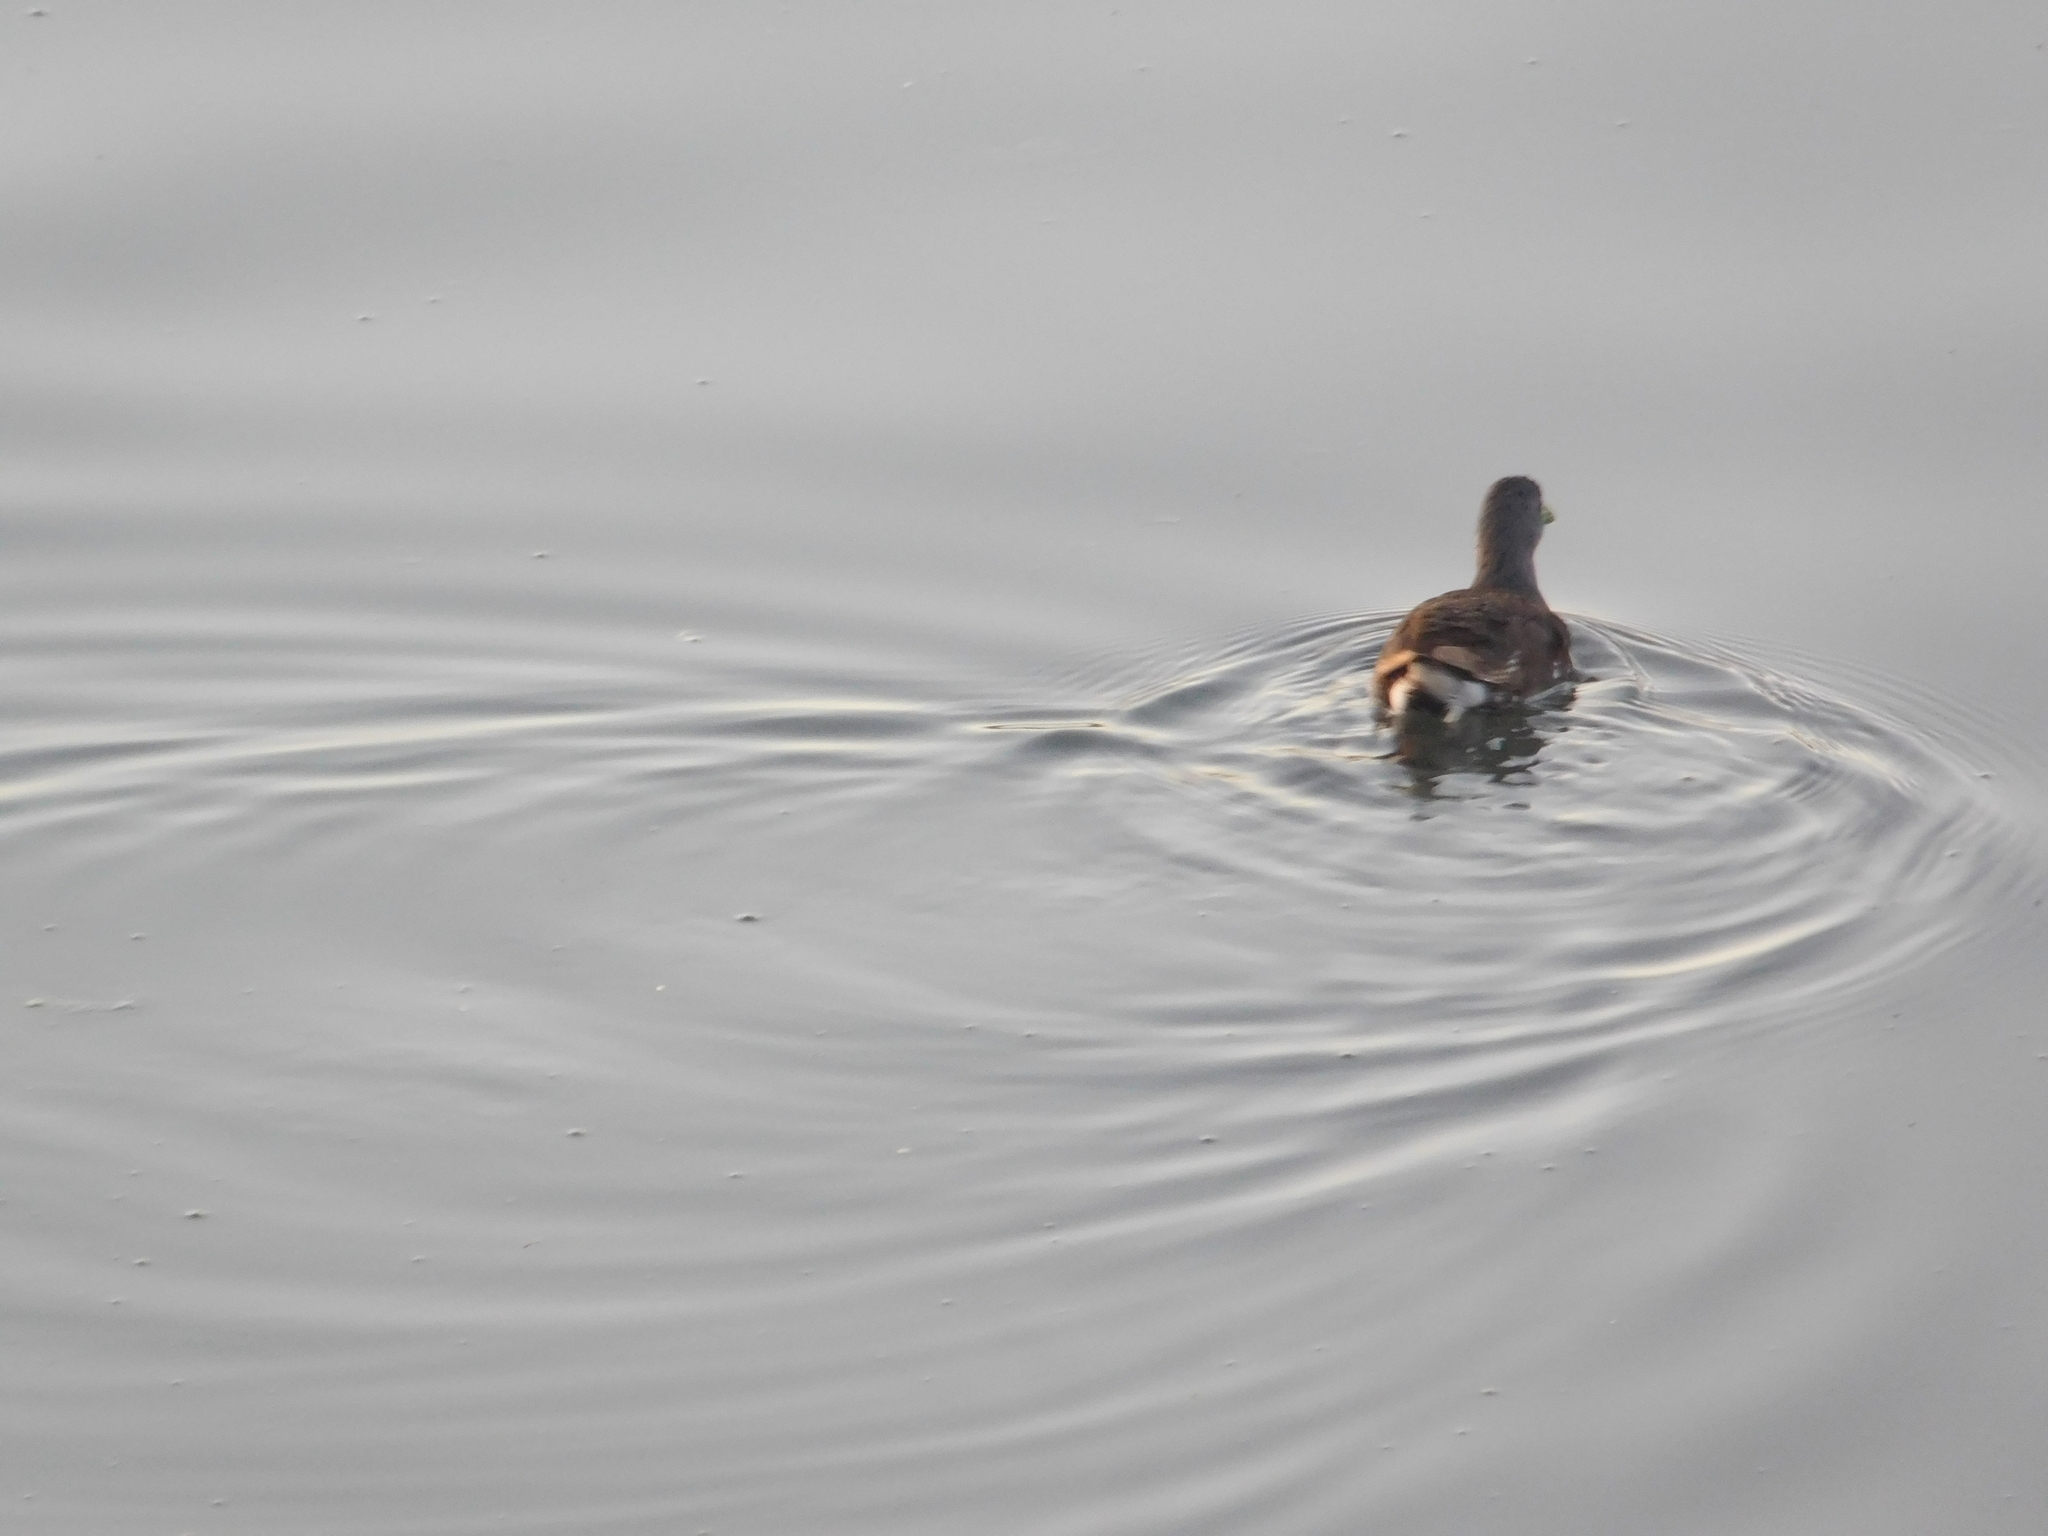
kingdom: Animalia
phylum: Chordata
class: Aves
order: Gruiformes
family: Rallidae
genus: Gallinula
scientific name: Gallinula melanops
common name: Spot-flanked gallinule
